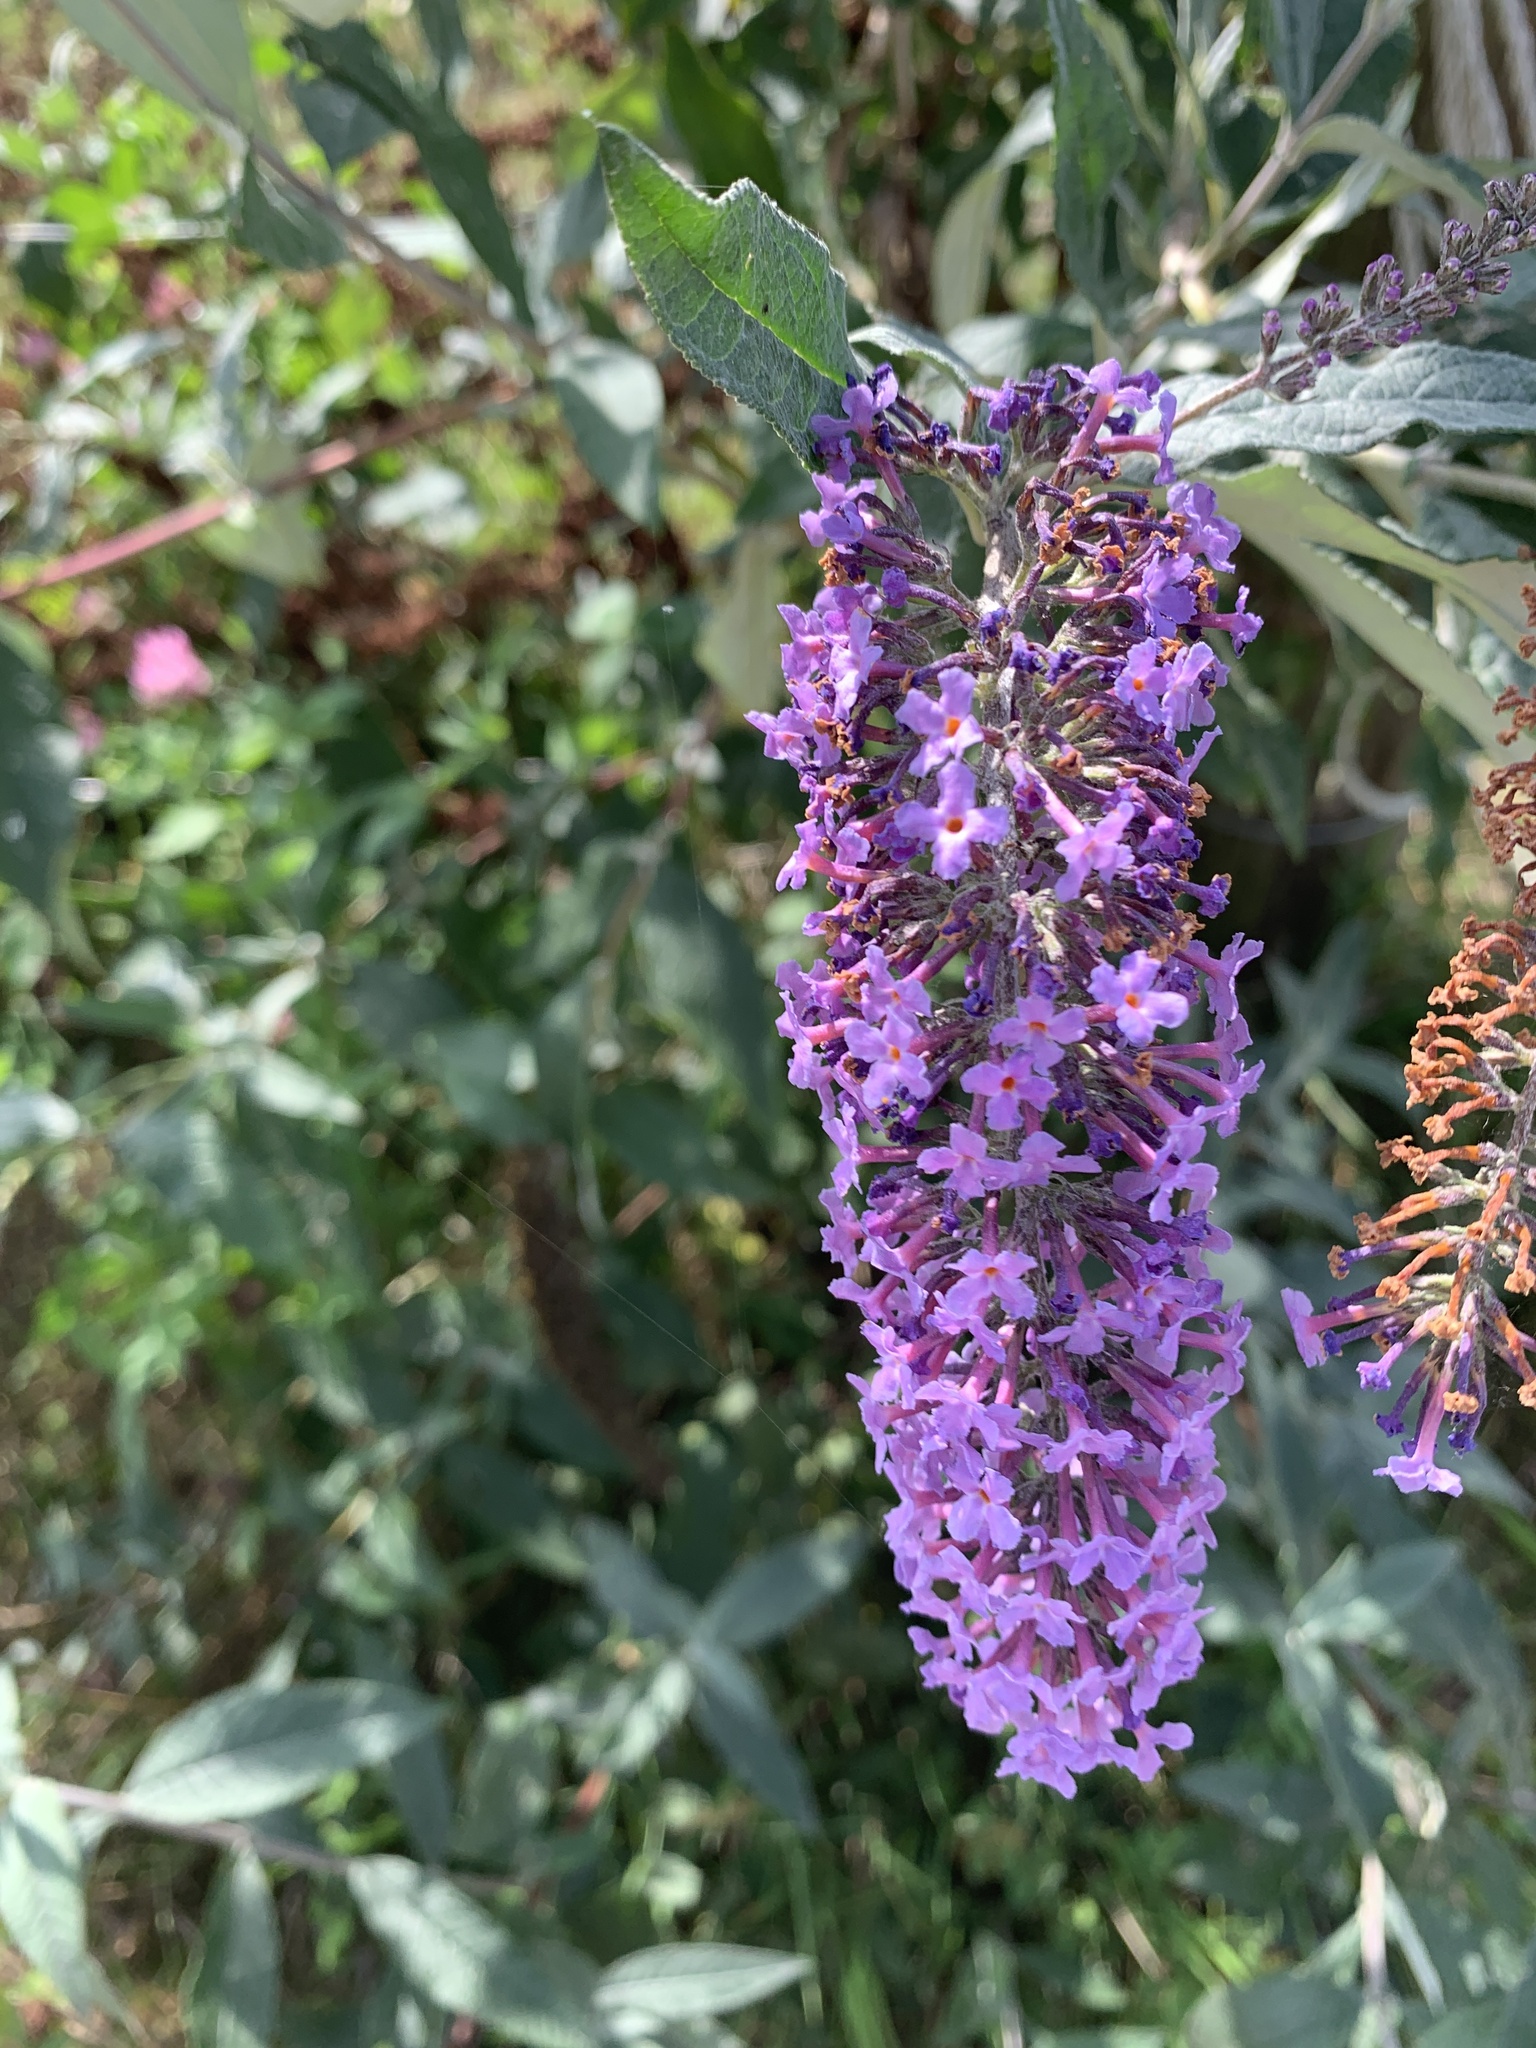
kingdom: Plantae
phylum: Tracheophyta
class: Magnoliopsida
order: Lamiales
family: Scrophulariaceae
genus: Buddleja
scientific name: Buddleja davidii
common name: Butterfly-bush
